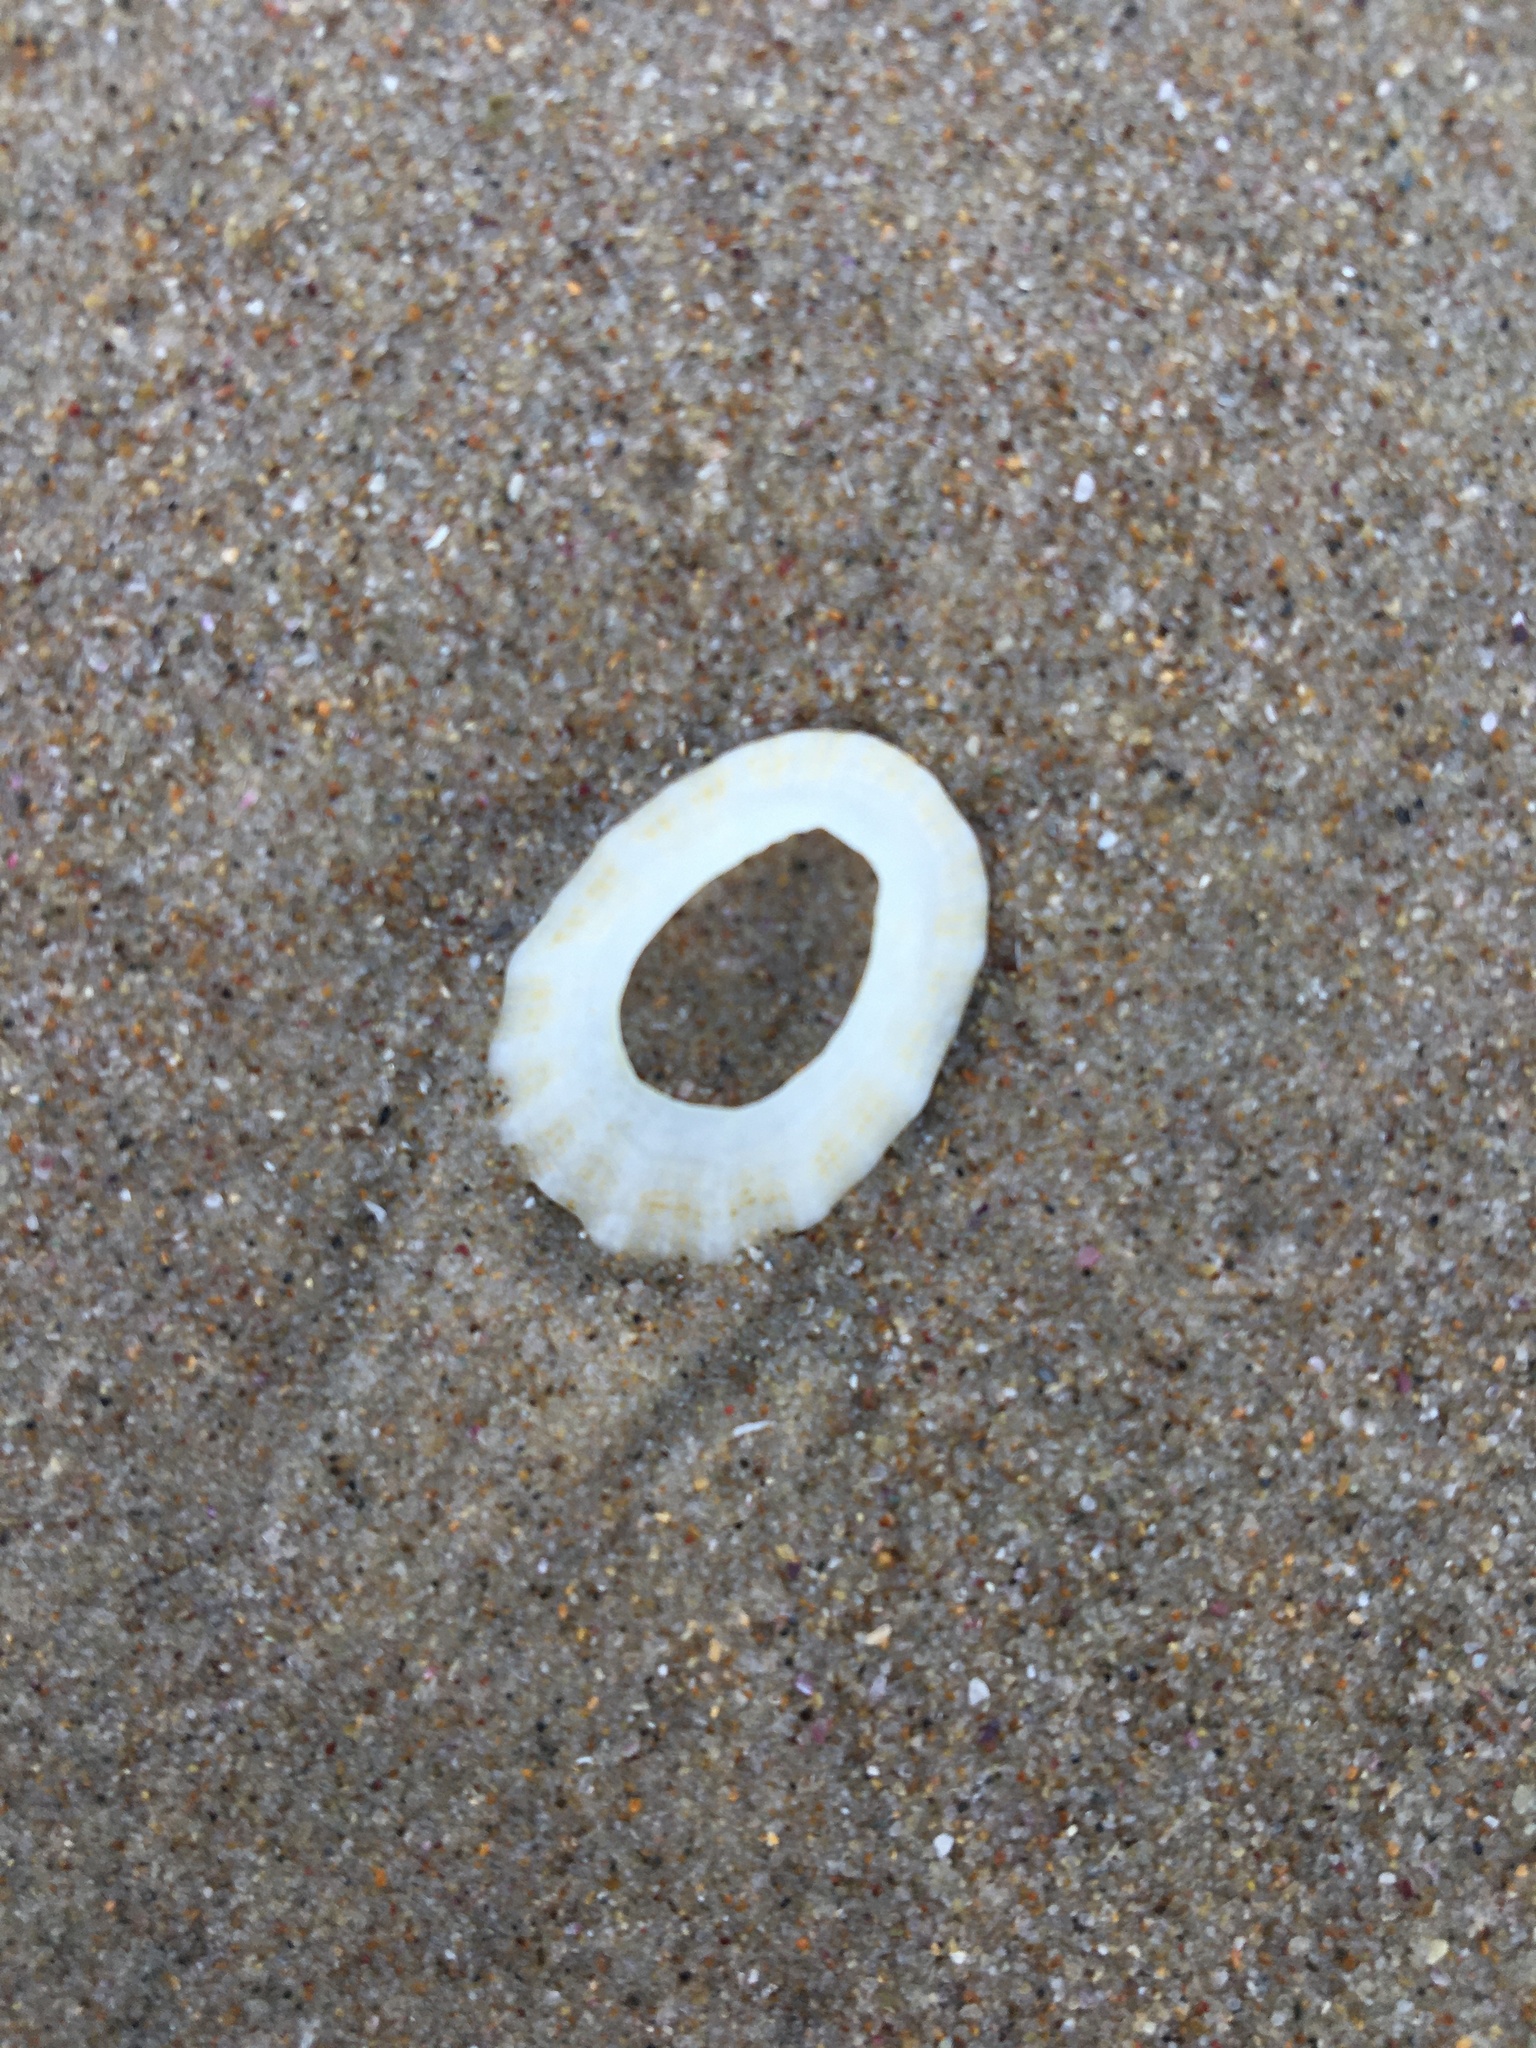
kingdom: Animalia
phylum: Mollusca
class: Gastropoda
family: Patellidae
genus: Scutellastra
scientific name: Scutellastra peronii
